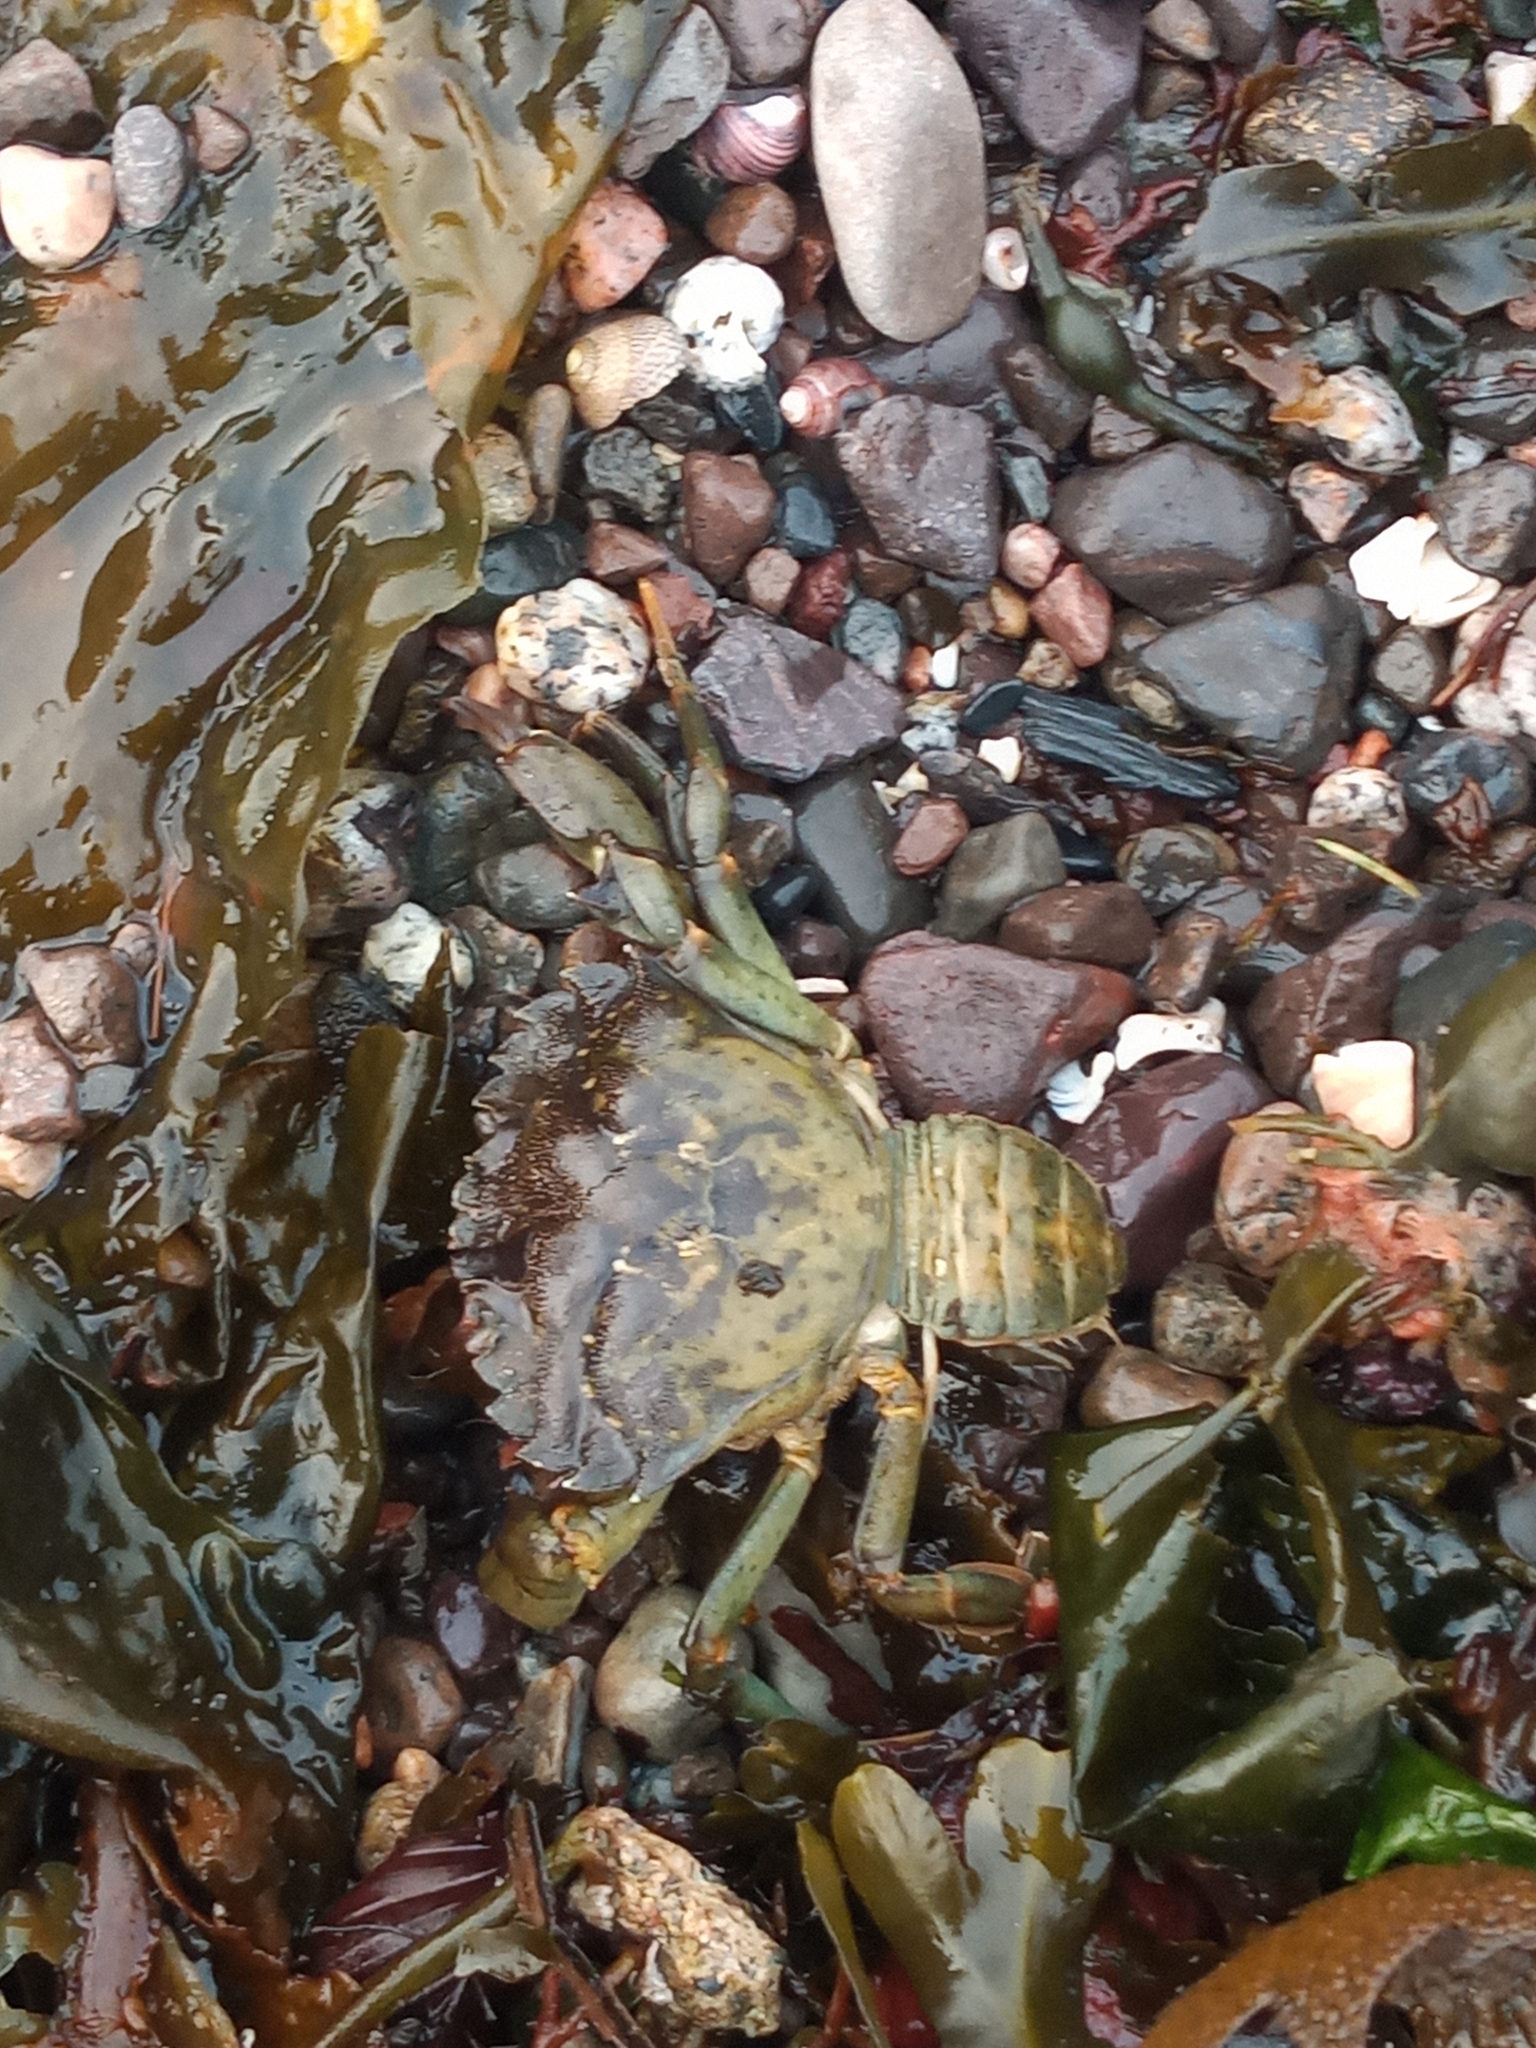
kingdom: Animalia
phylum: Arthropoda
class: Malacostraca
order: Decapoda
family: Carcinidae
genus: Carcinus
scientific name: Carcinus maenas
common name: European green crab
